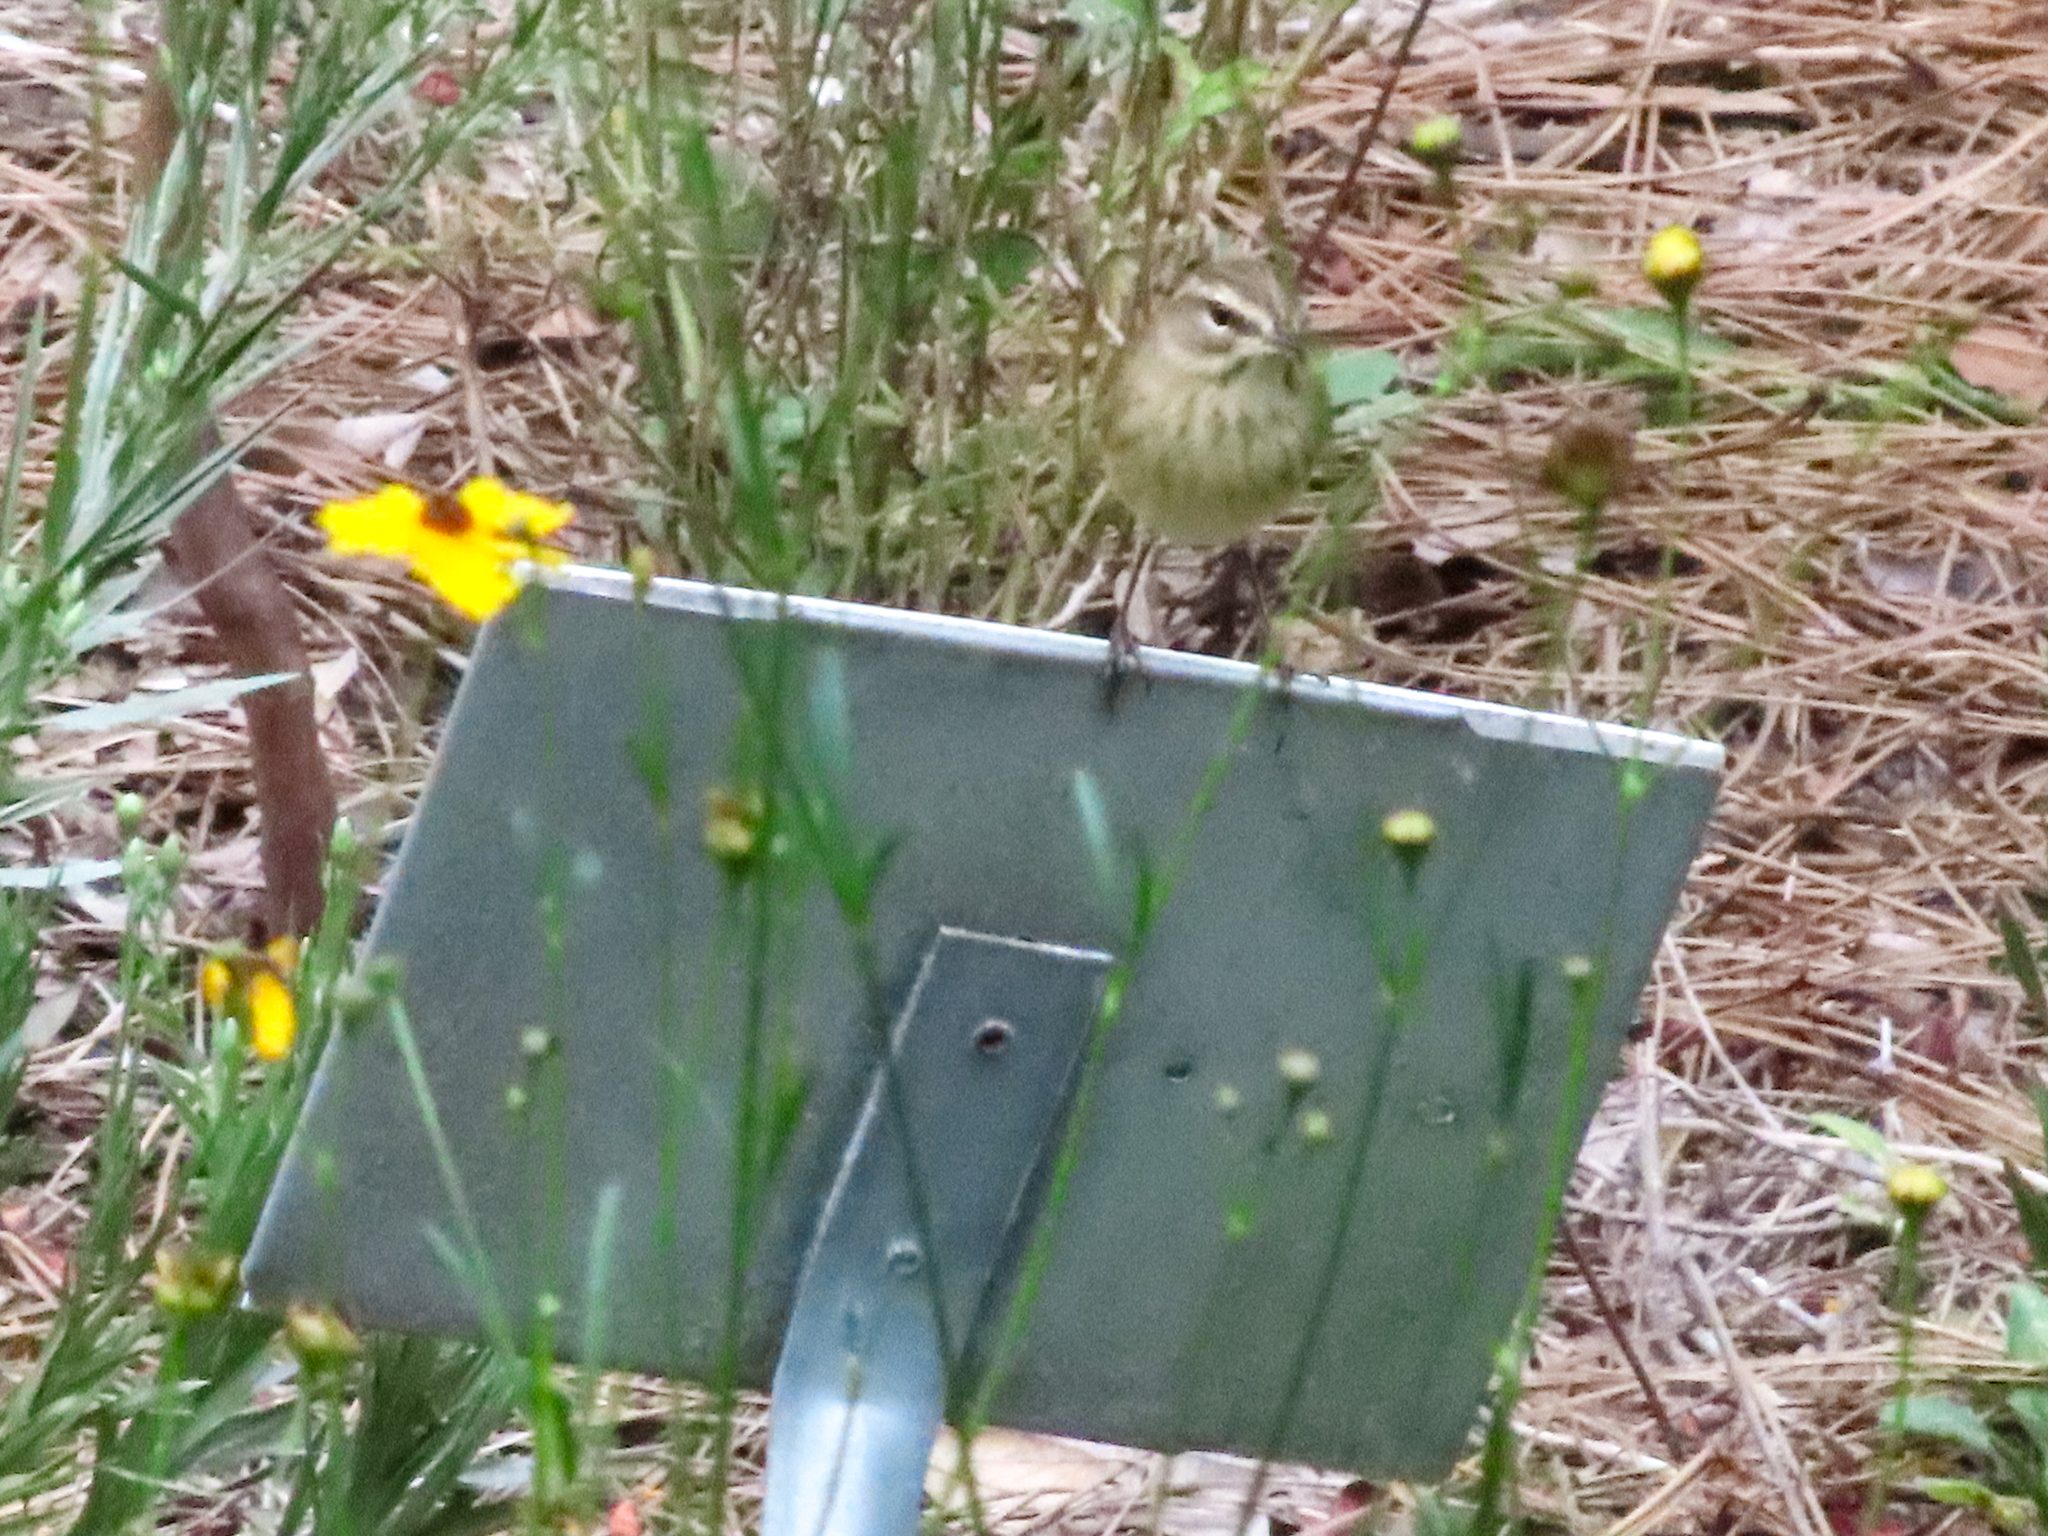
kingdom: Animalia
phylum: Chordata
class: Aves
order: Passeriformes
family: Parulidae
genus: Setophaga
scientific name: Setophaga palmarum
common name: Palm warbler
